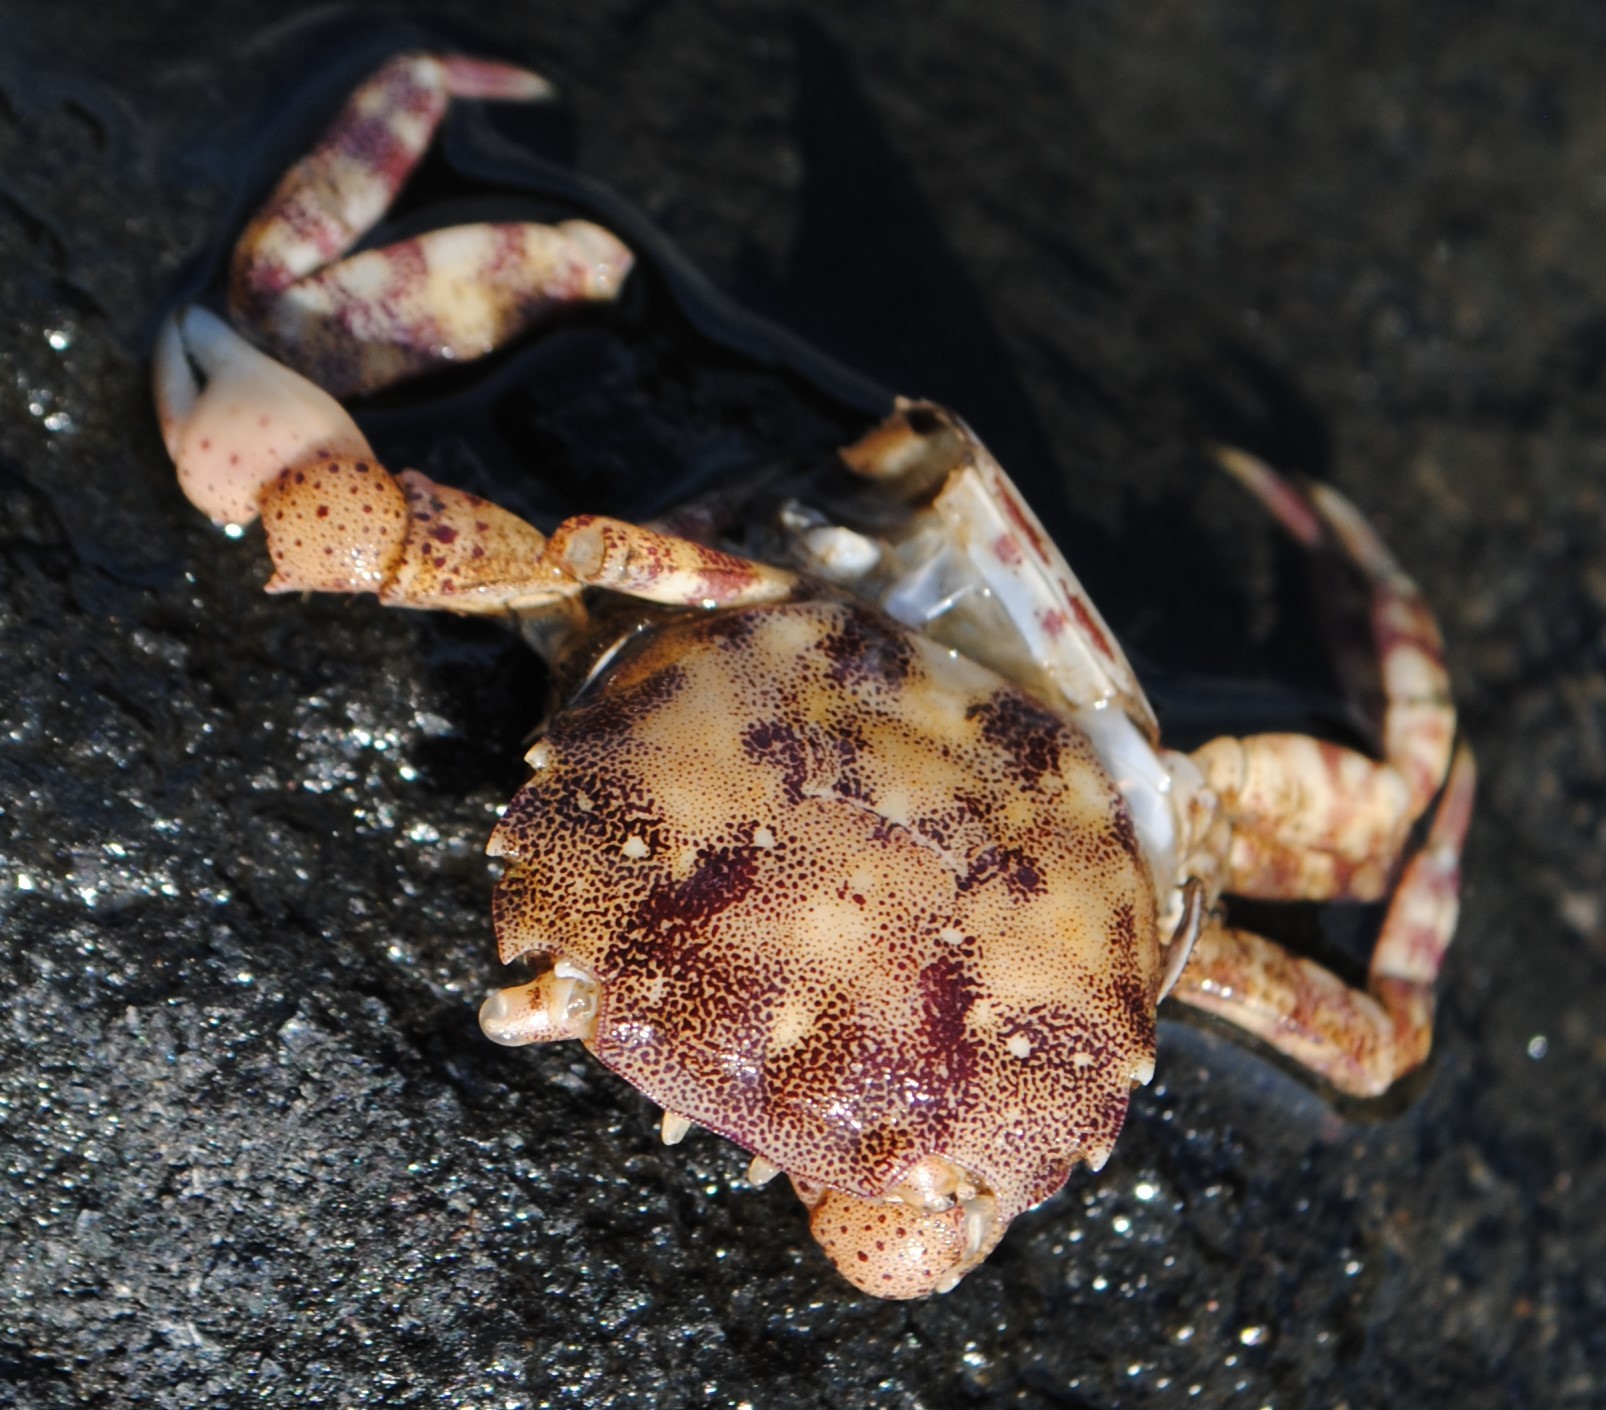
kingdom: Animalia
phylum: Arthropoda
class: Malacostraca
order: Decapoda
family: Varunidae
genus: Hemigrapsus
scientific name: Hemigrapsus sanguineus
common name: Asian shore crab
